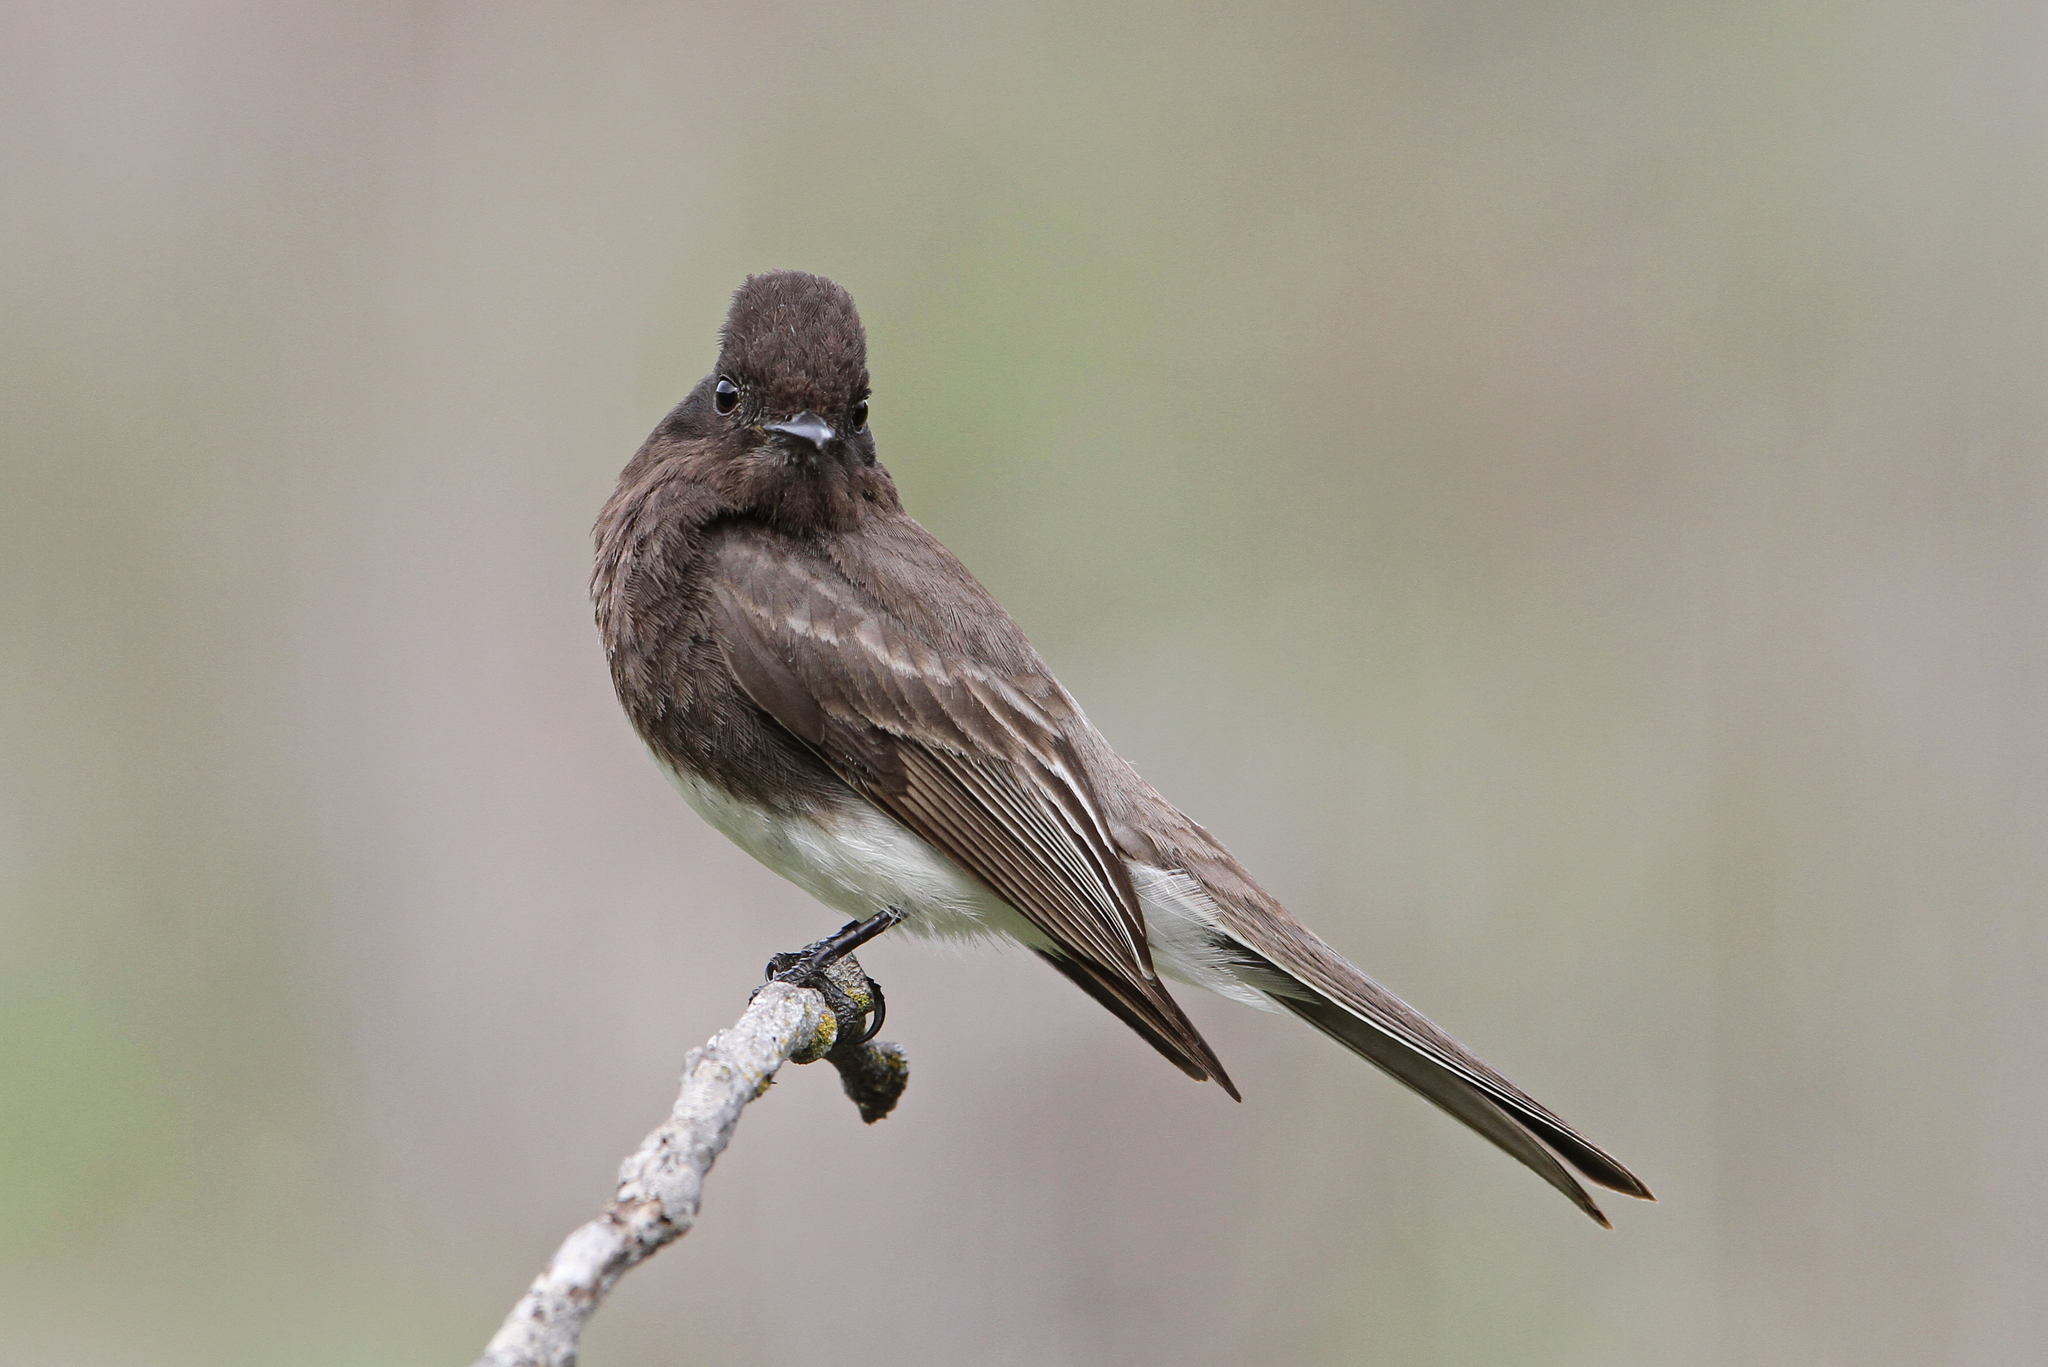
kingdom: Animalia
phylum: Chordata
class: Aves
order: Passeriformes
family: Tyrannidae
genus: Sayornis
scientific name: Sayornis nigricans
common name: Black phoebe
